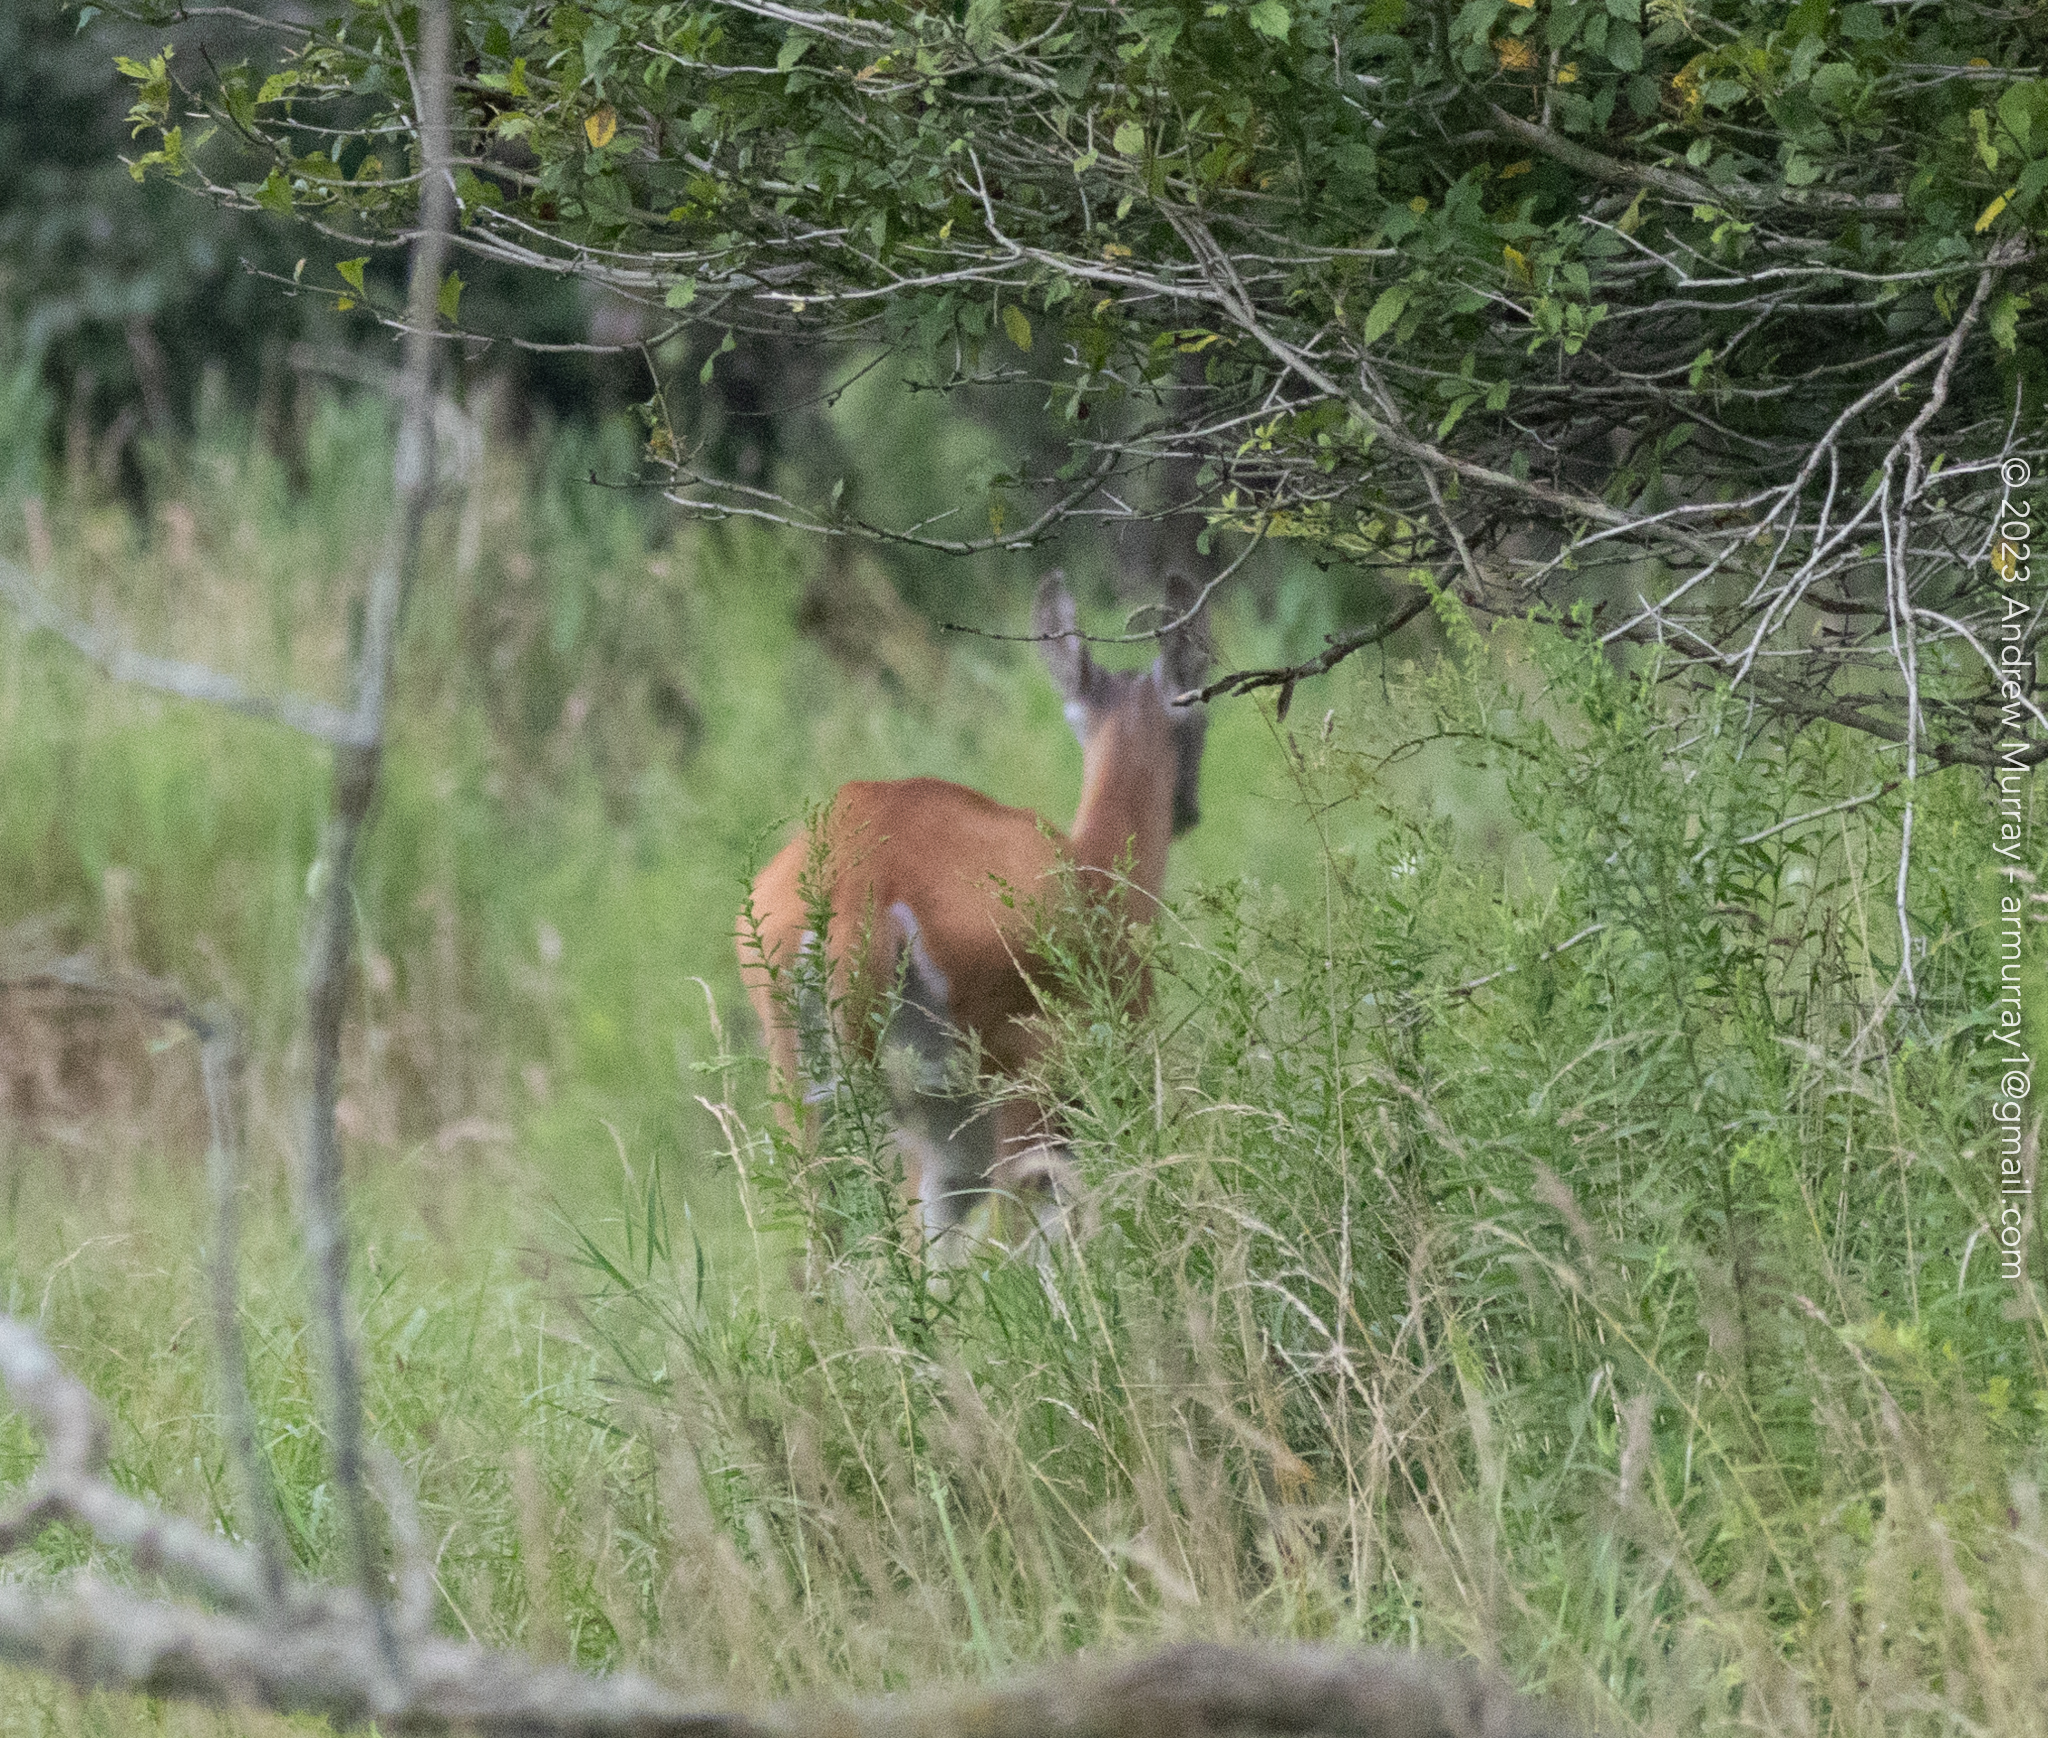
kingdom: Animalia
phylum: Chordata
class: Mammalia
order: Artiodactyla
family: Cervidae
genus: Odocoileus
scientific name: Odocoileus virginianus
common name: White-tailed deer
